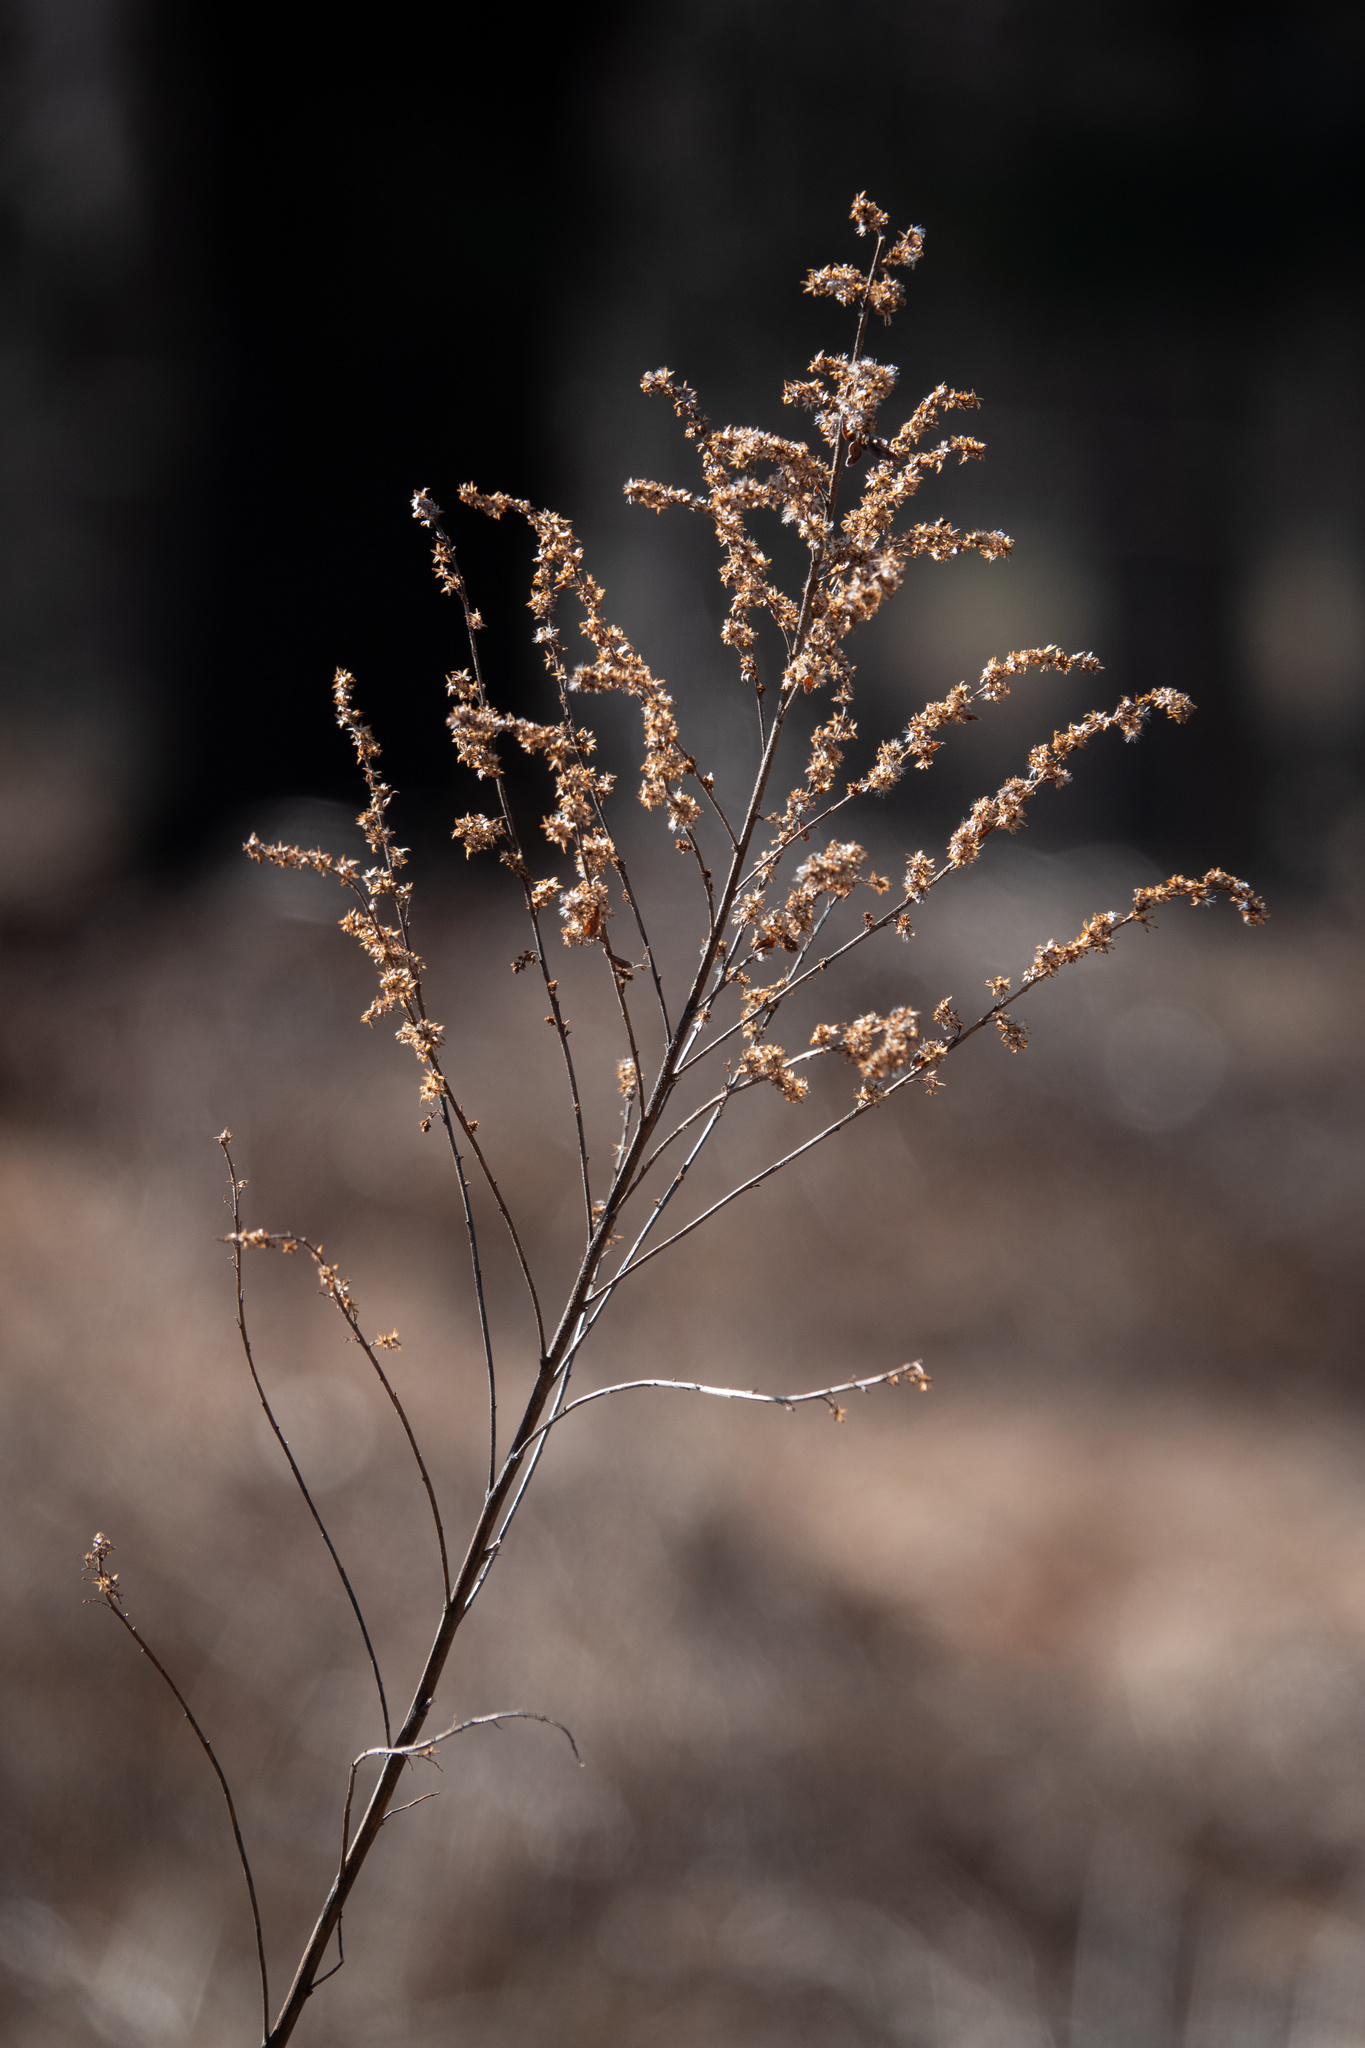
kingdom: Plantae
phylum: Tracheophyta
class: Magnoliopsida
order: Asterales
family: Asteraceae
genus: Artemisia
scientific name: Artemisia vulgaris
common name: Mugwort
